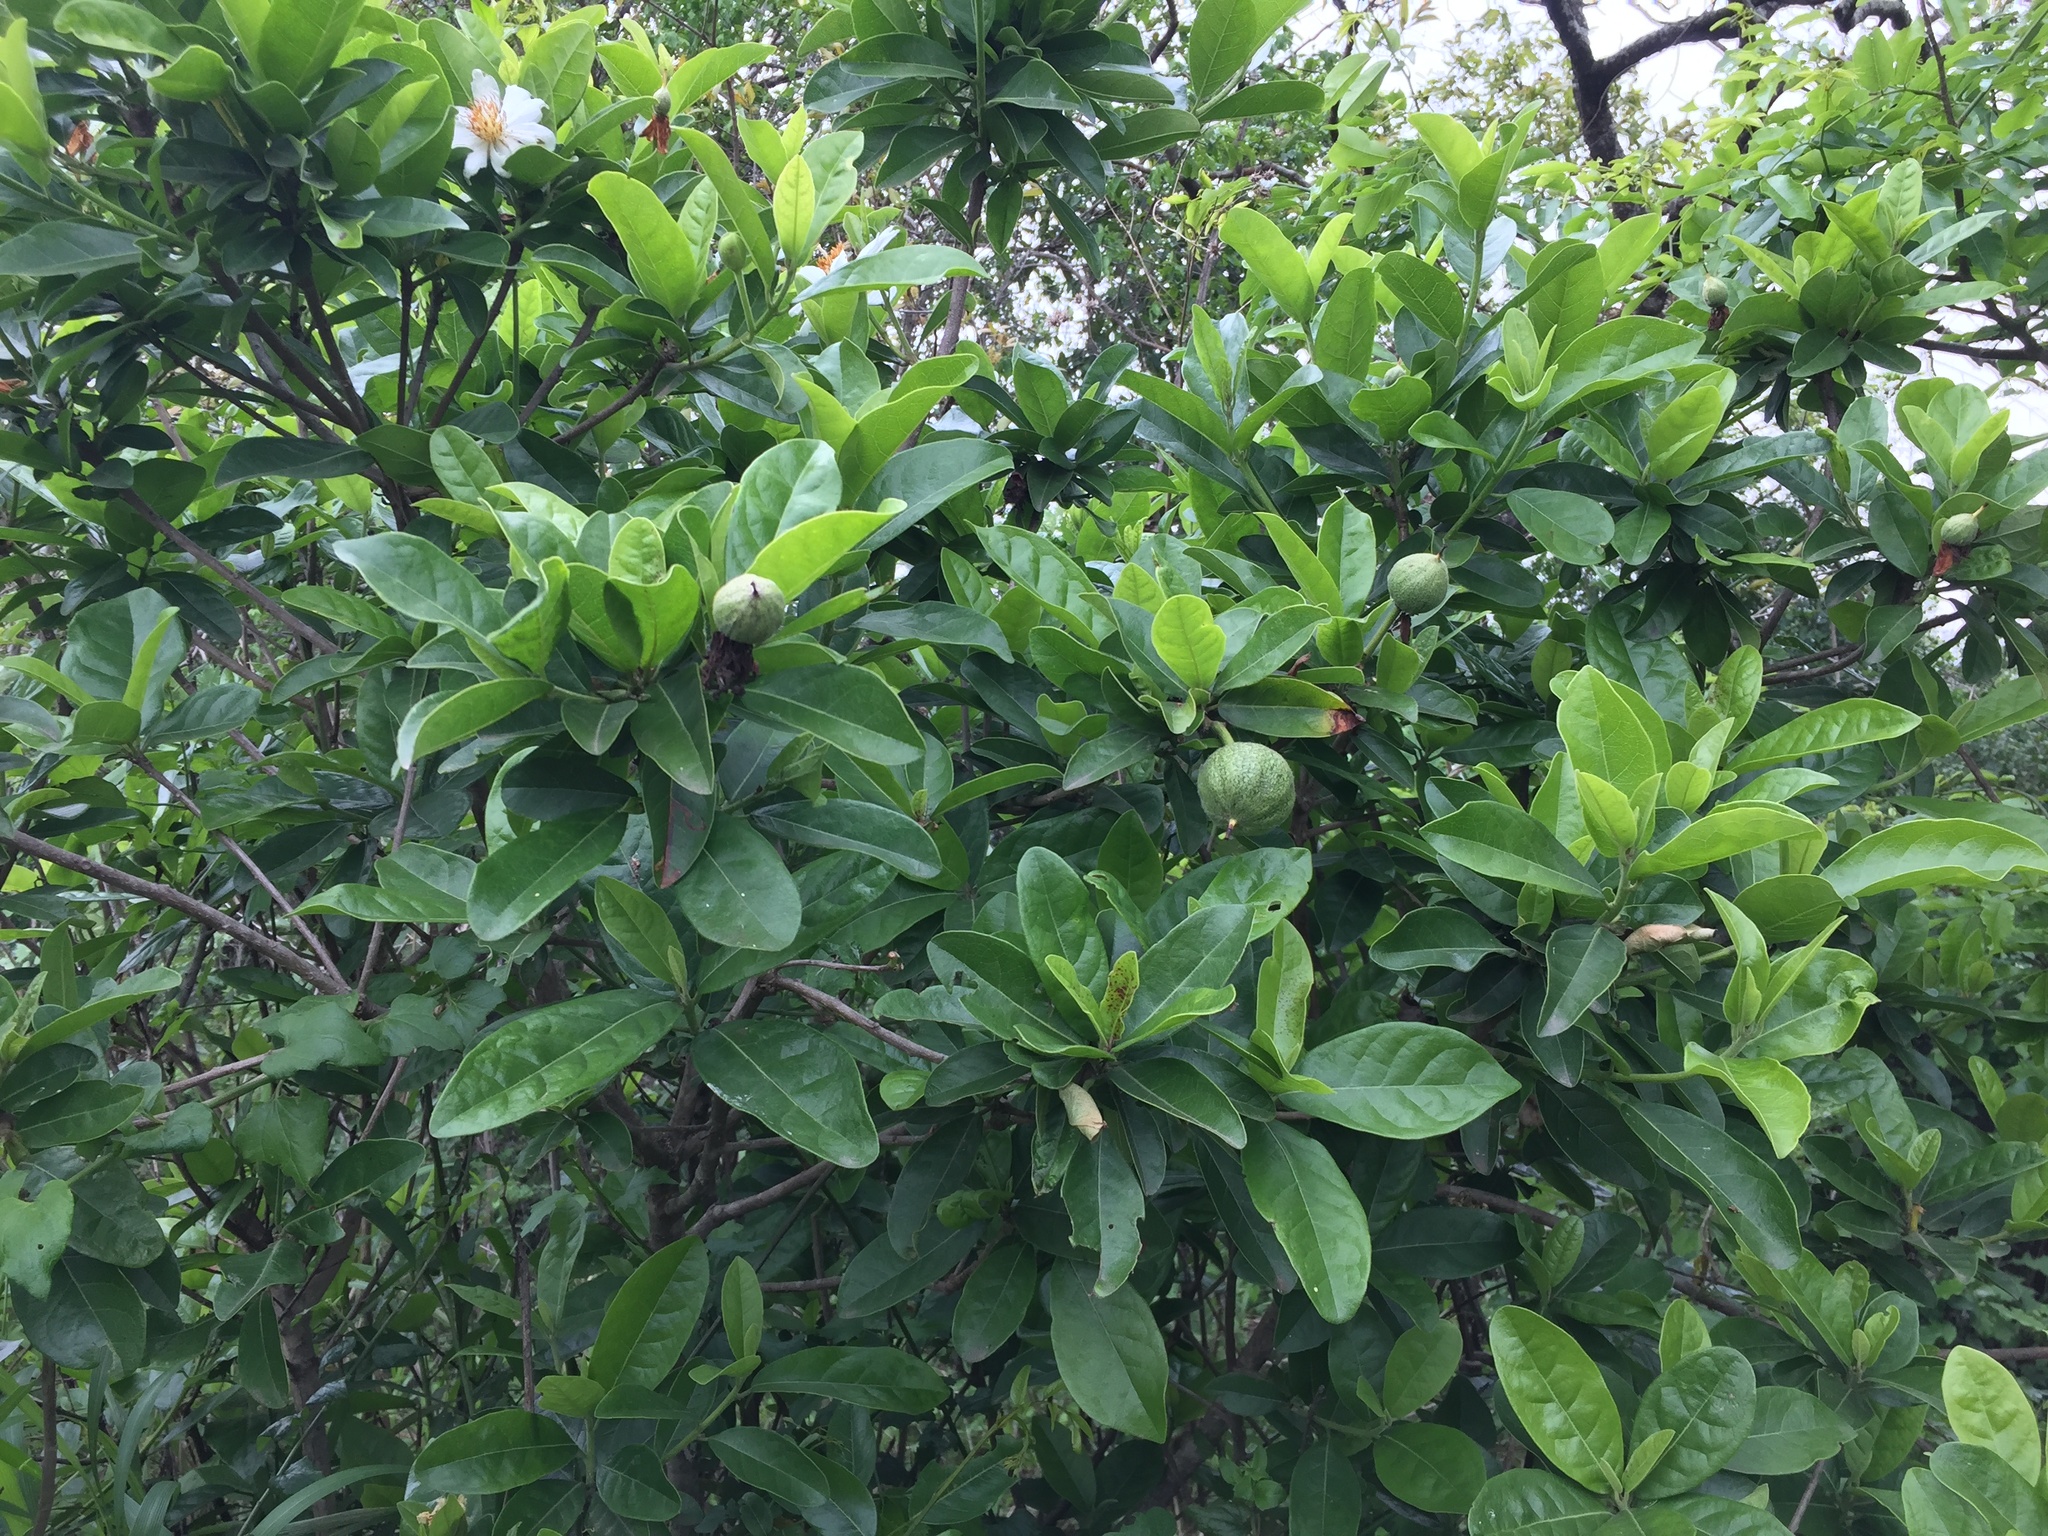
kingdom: Plantae
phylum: Tracheophyta
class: Magnoliopsida
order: Malpighiales
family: Achariaceae
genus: Xylotheca
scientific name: Xylotheca kraussiana
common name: African dog rose
